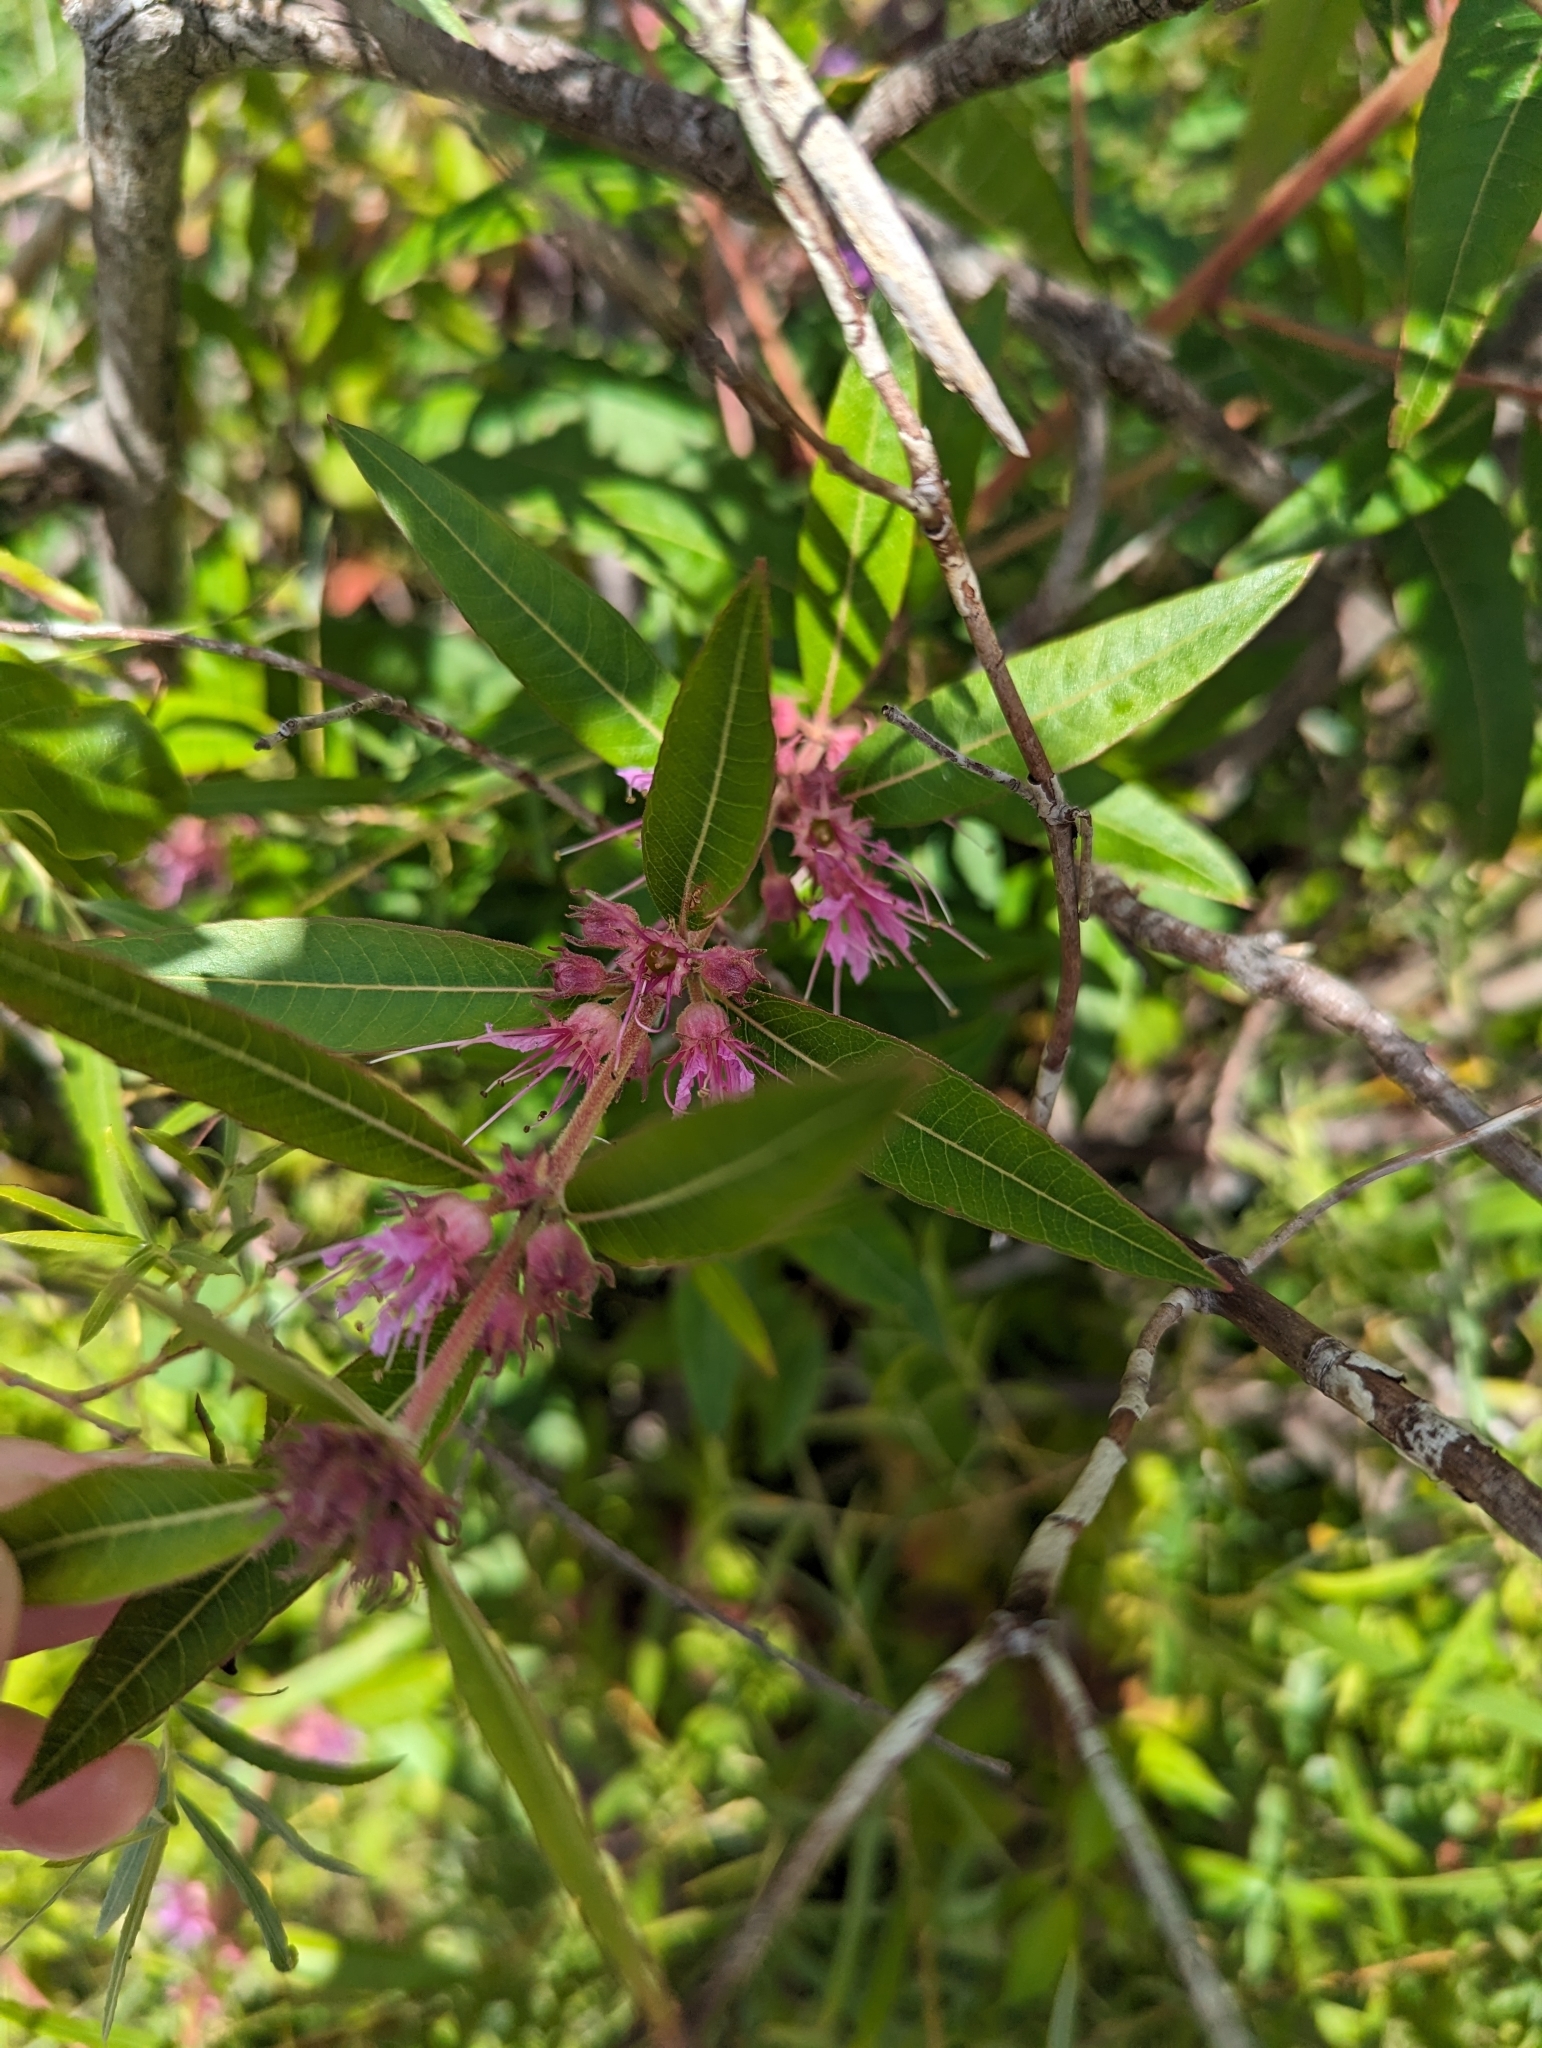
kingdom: Plantae
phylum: Tracheophyta
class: Magnoliopsida
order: Myrtales
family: Lythraceae
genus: Decodon
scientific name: Decodon verticillatus
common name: Hairy swamp loosestrife
